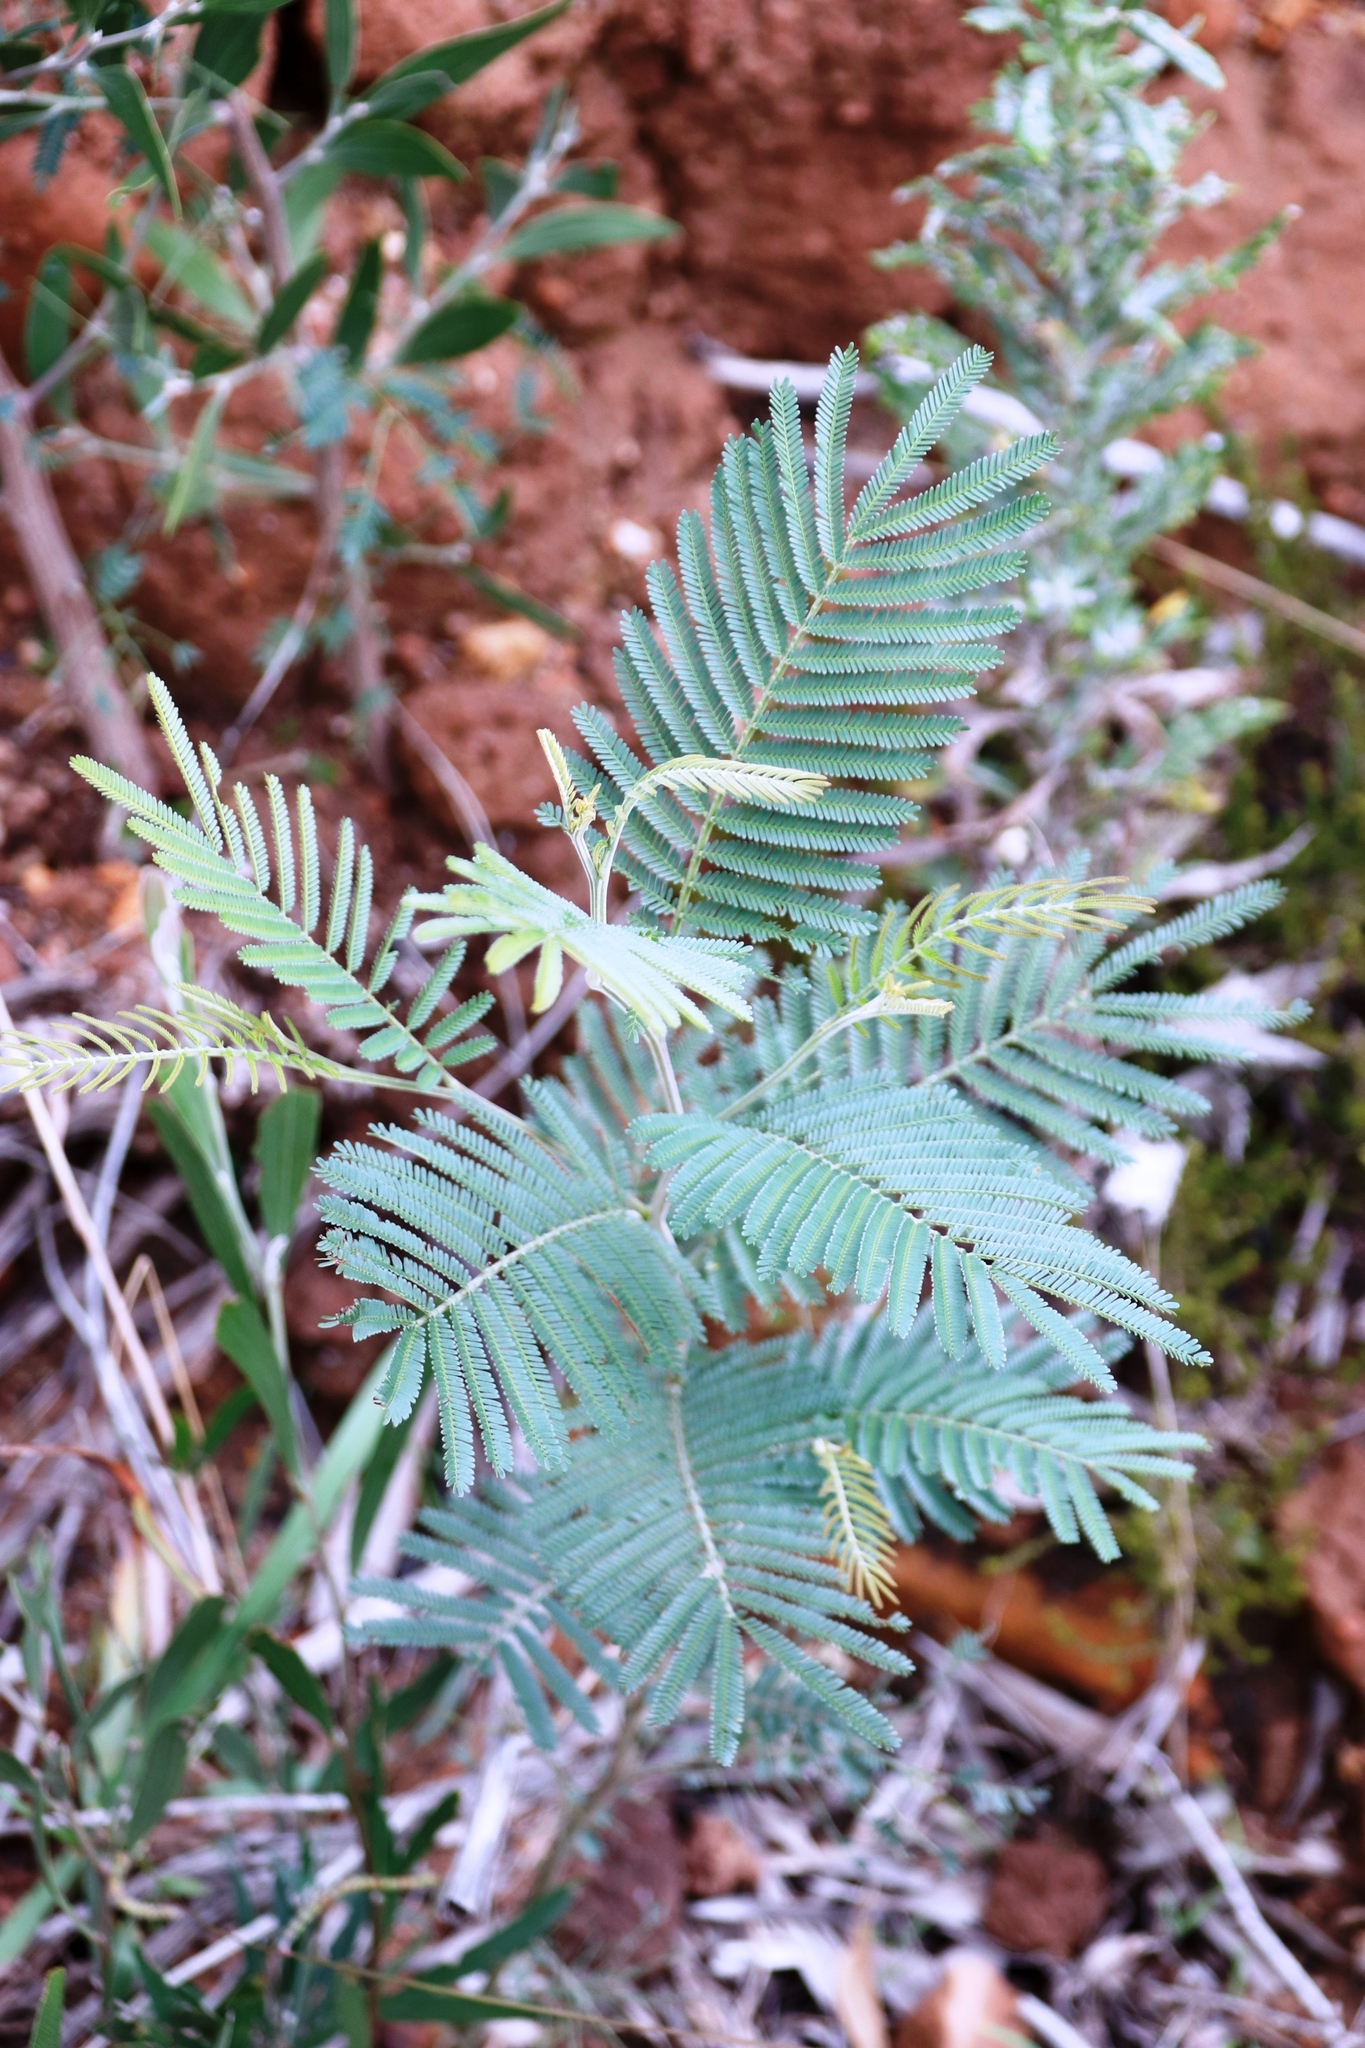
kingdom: Plantae
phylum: Tracheophyta
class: Magnoliopsida
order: Fabales
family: Fabaceae
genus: Acacia
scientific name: Acacia mearnsii
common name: Black wattle
